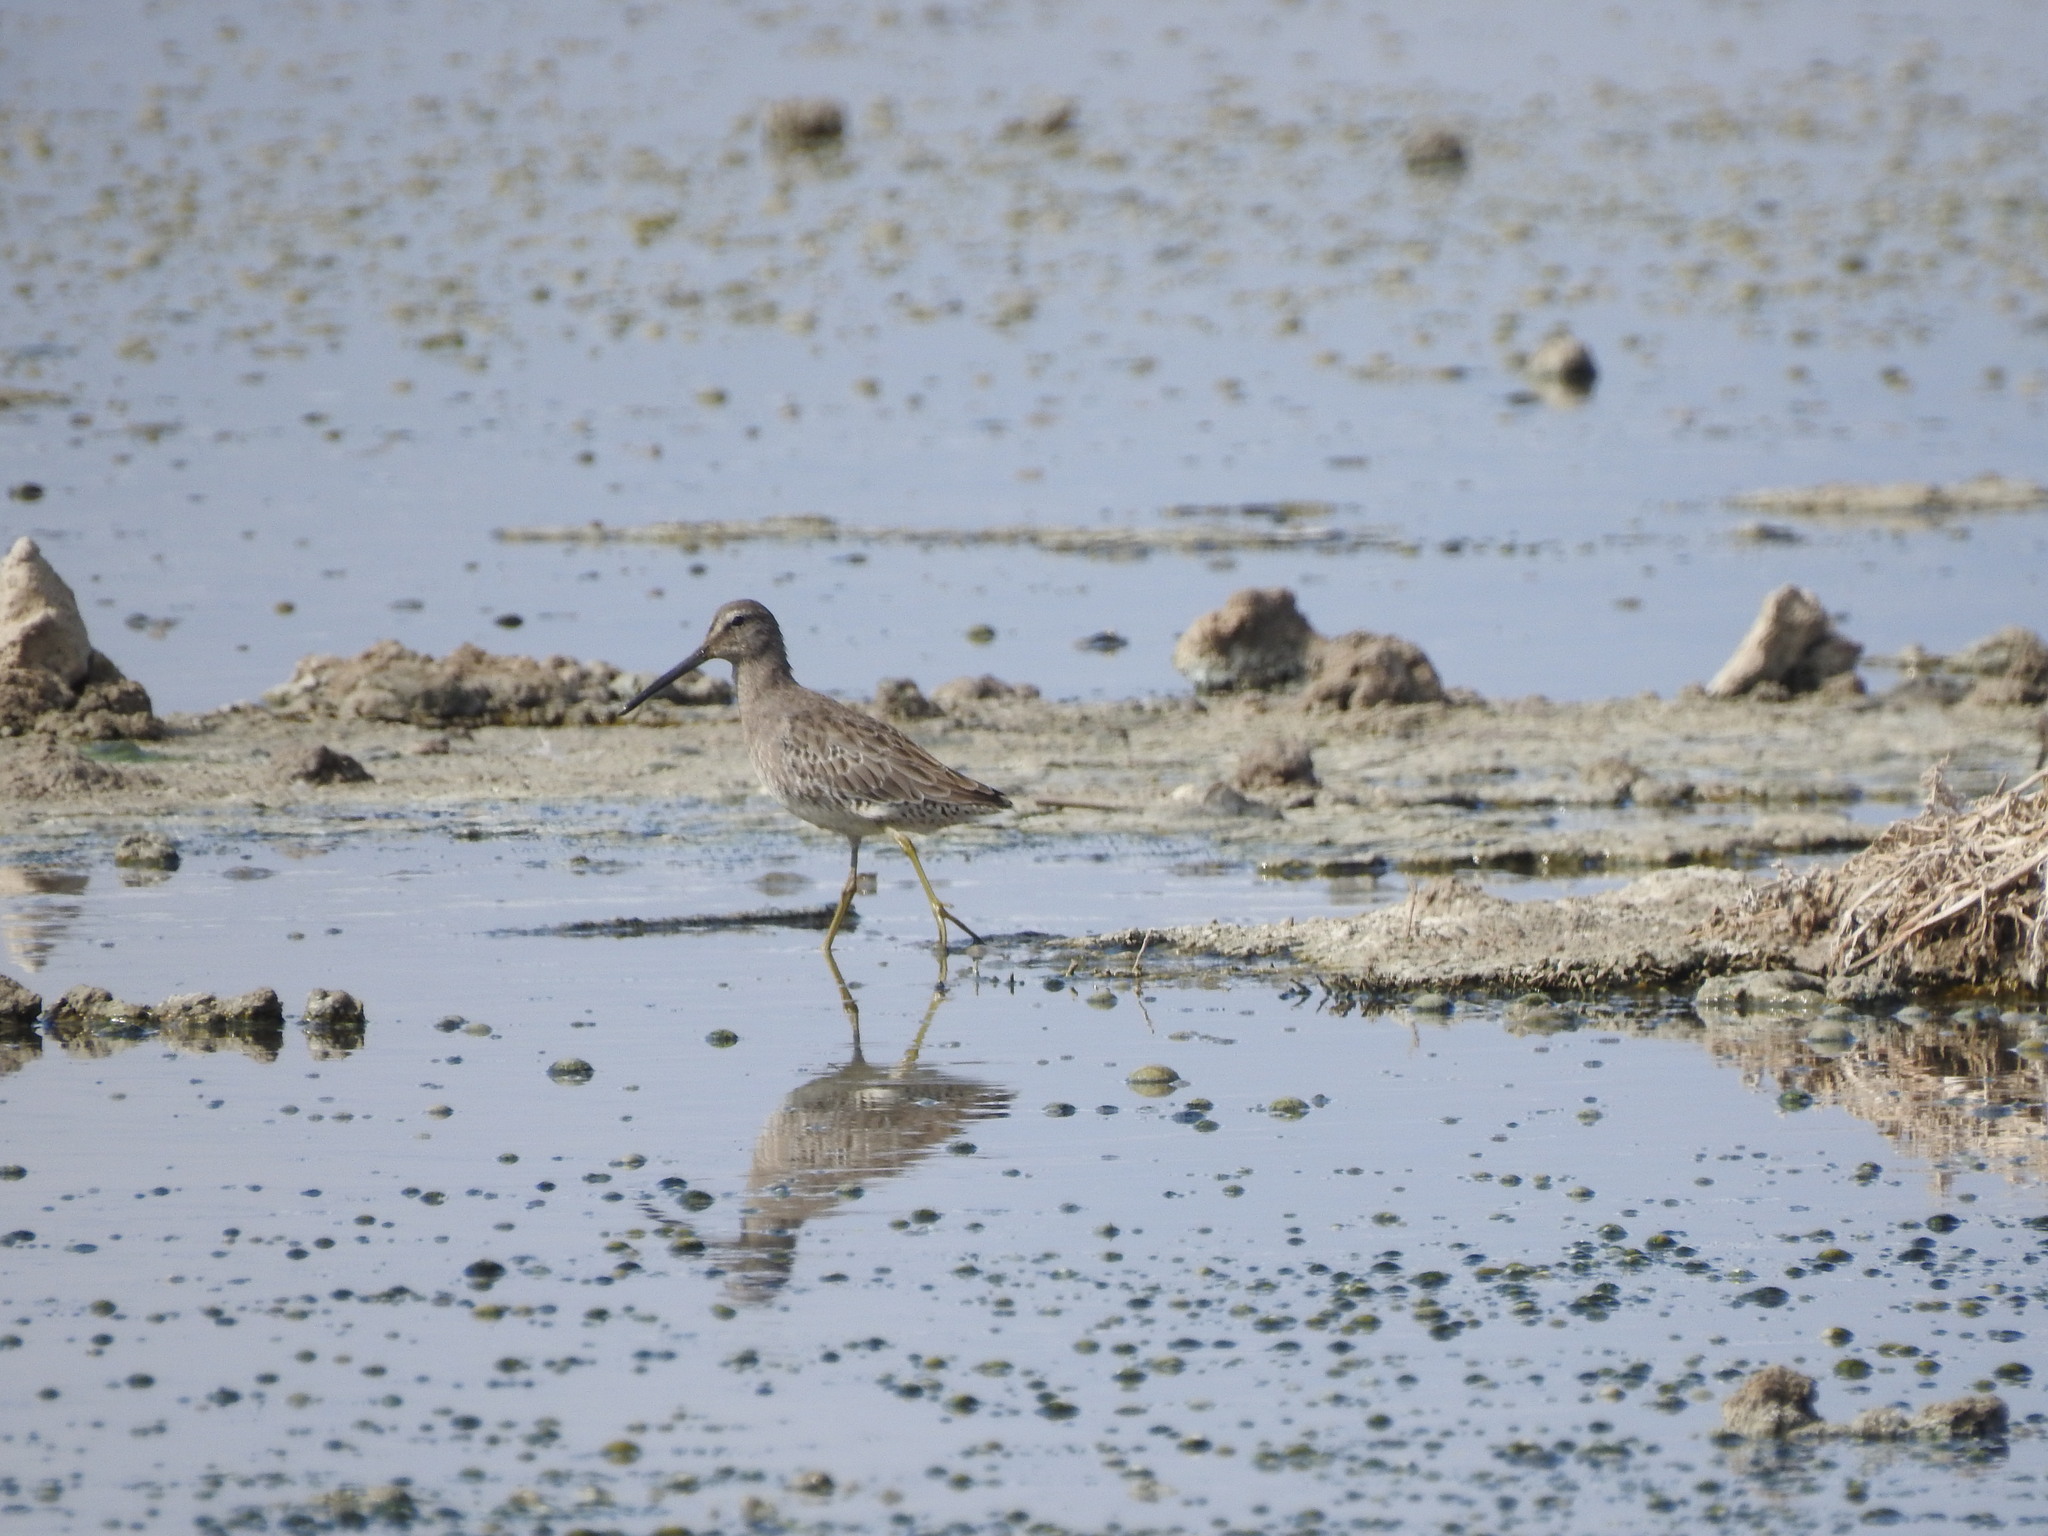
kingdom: Animalia
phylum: Chordata
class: Aves
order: Charadriiformes
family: Scolopacidae
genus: Limnodromus
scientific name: Limnodromus scolopaceus
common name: Long-billed dowitcher
